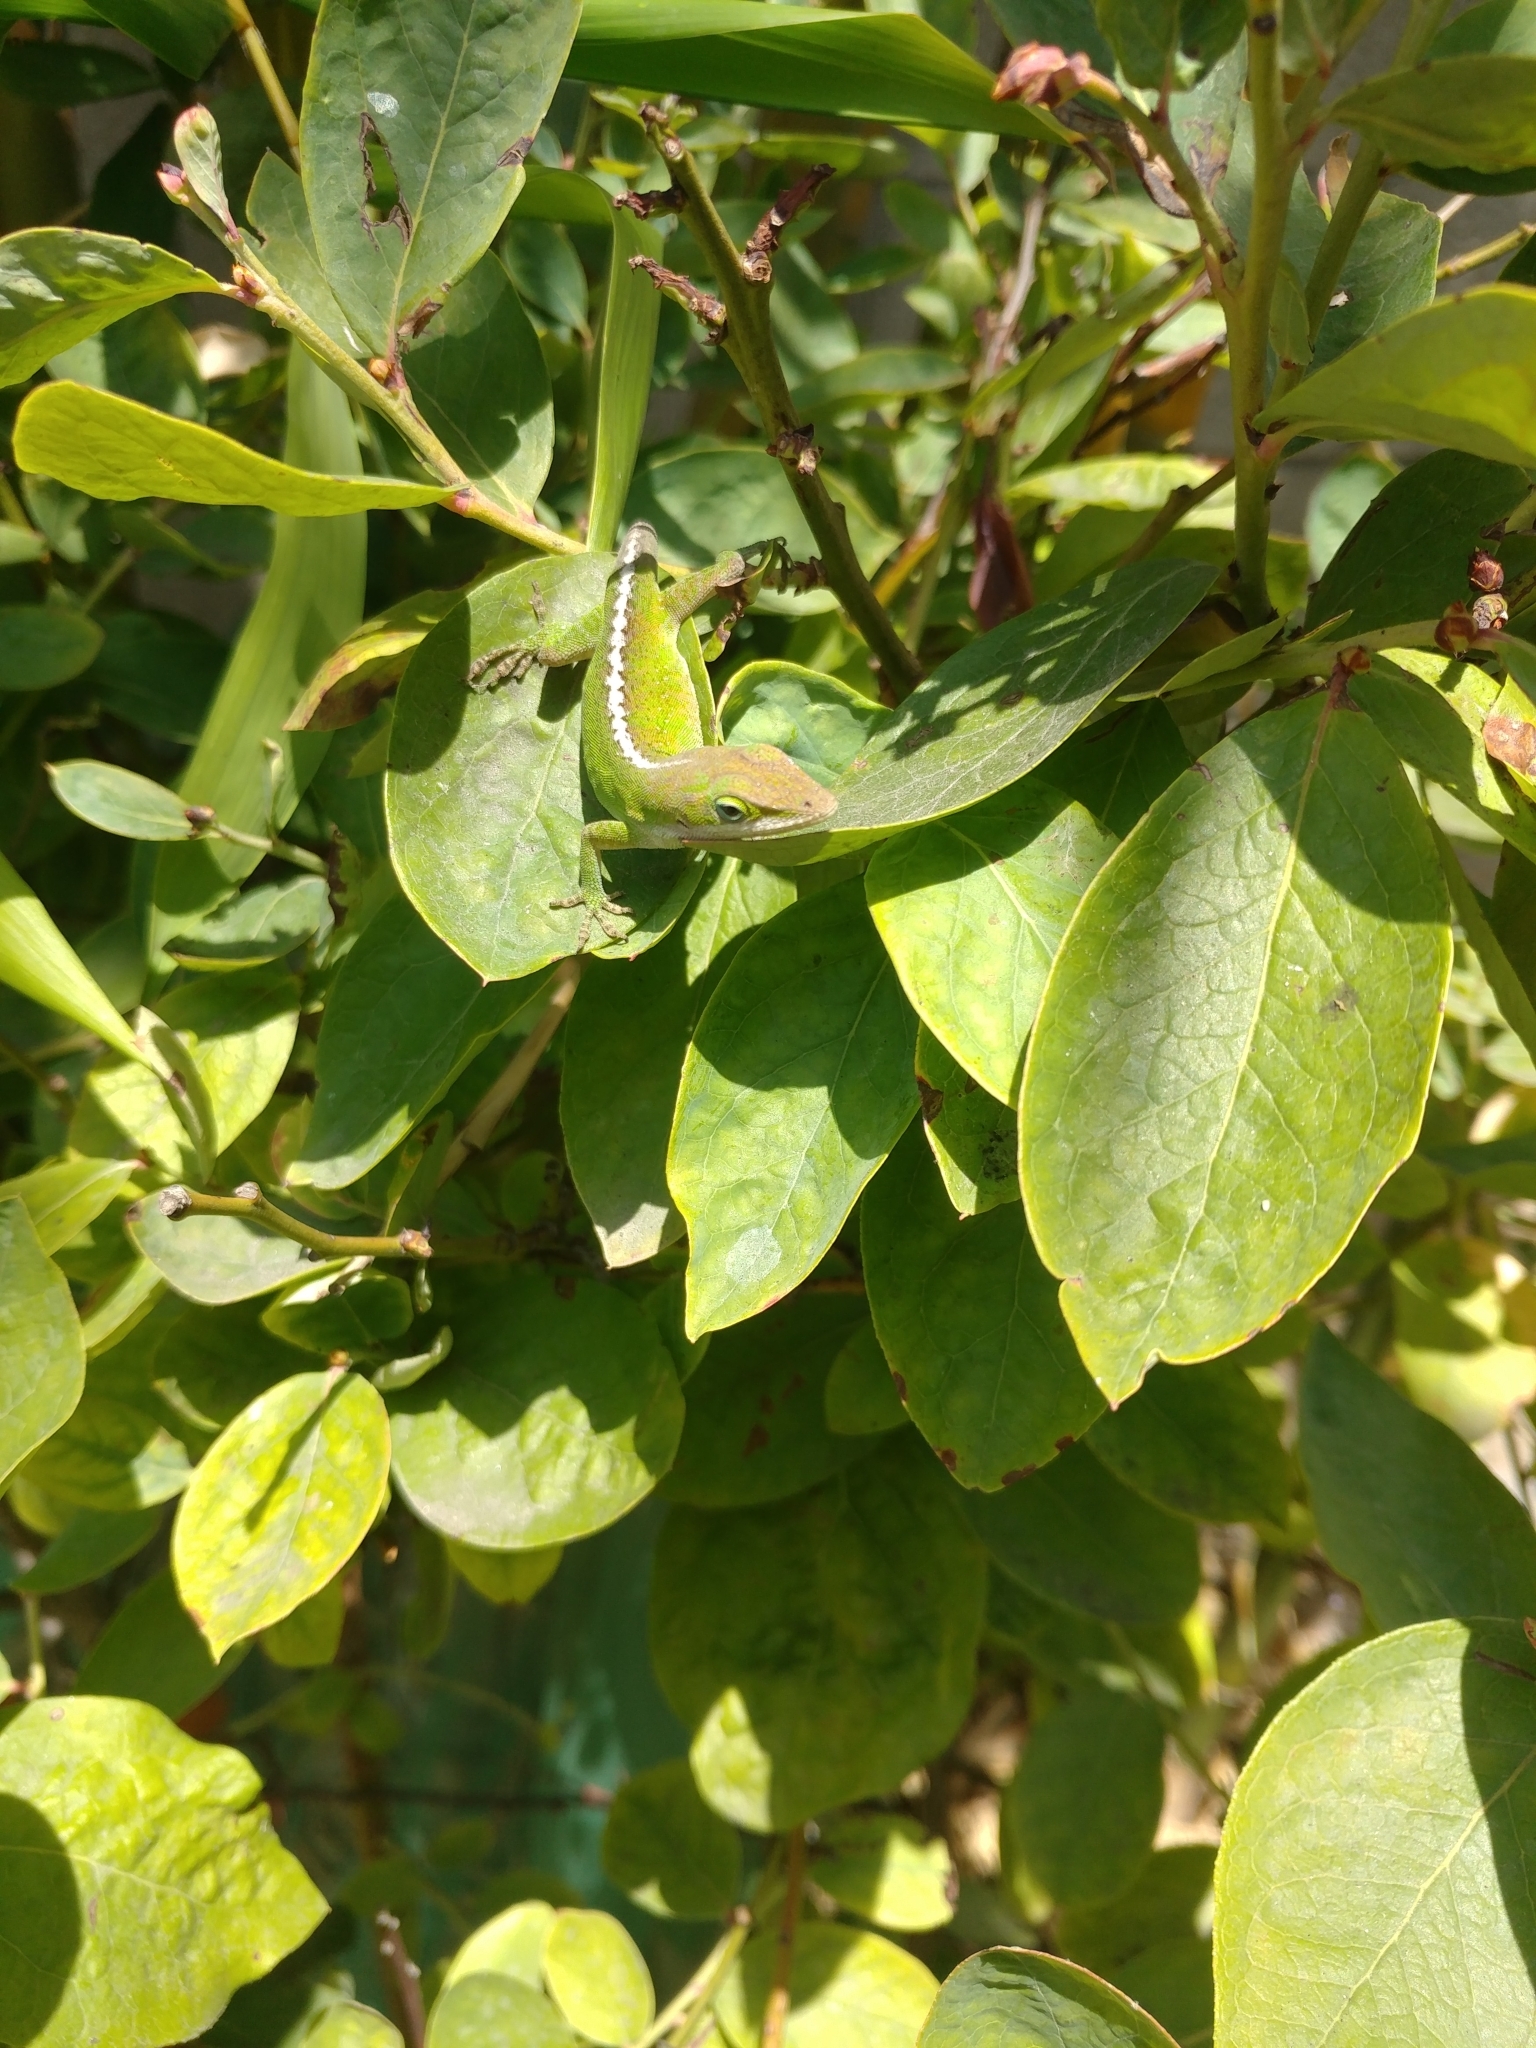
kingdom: Animalia
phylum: Chordata
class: Squamata
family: Dactyloidae
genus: Anolis
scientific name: Anolis carolinensis
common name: Green anole
